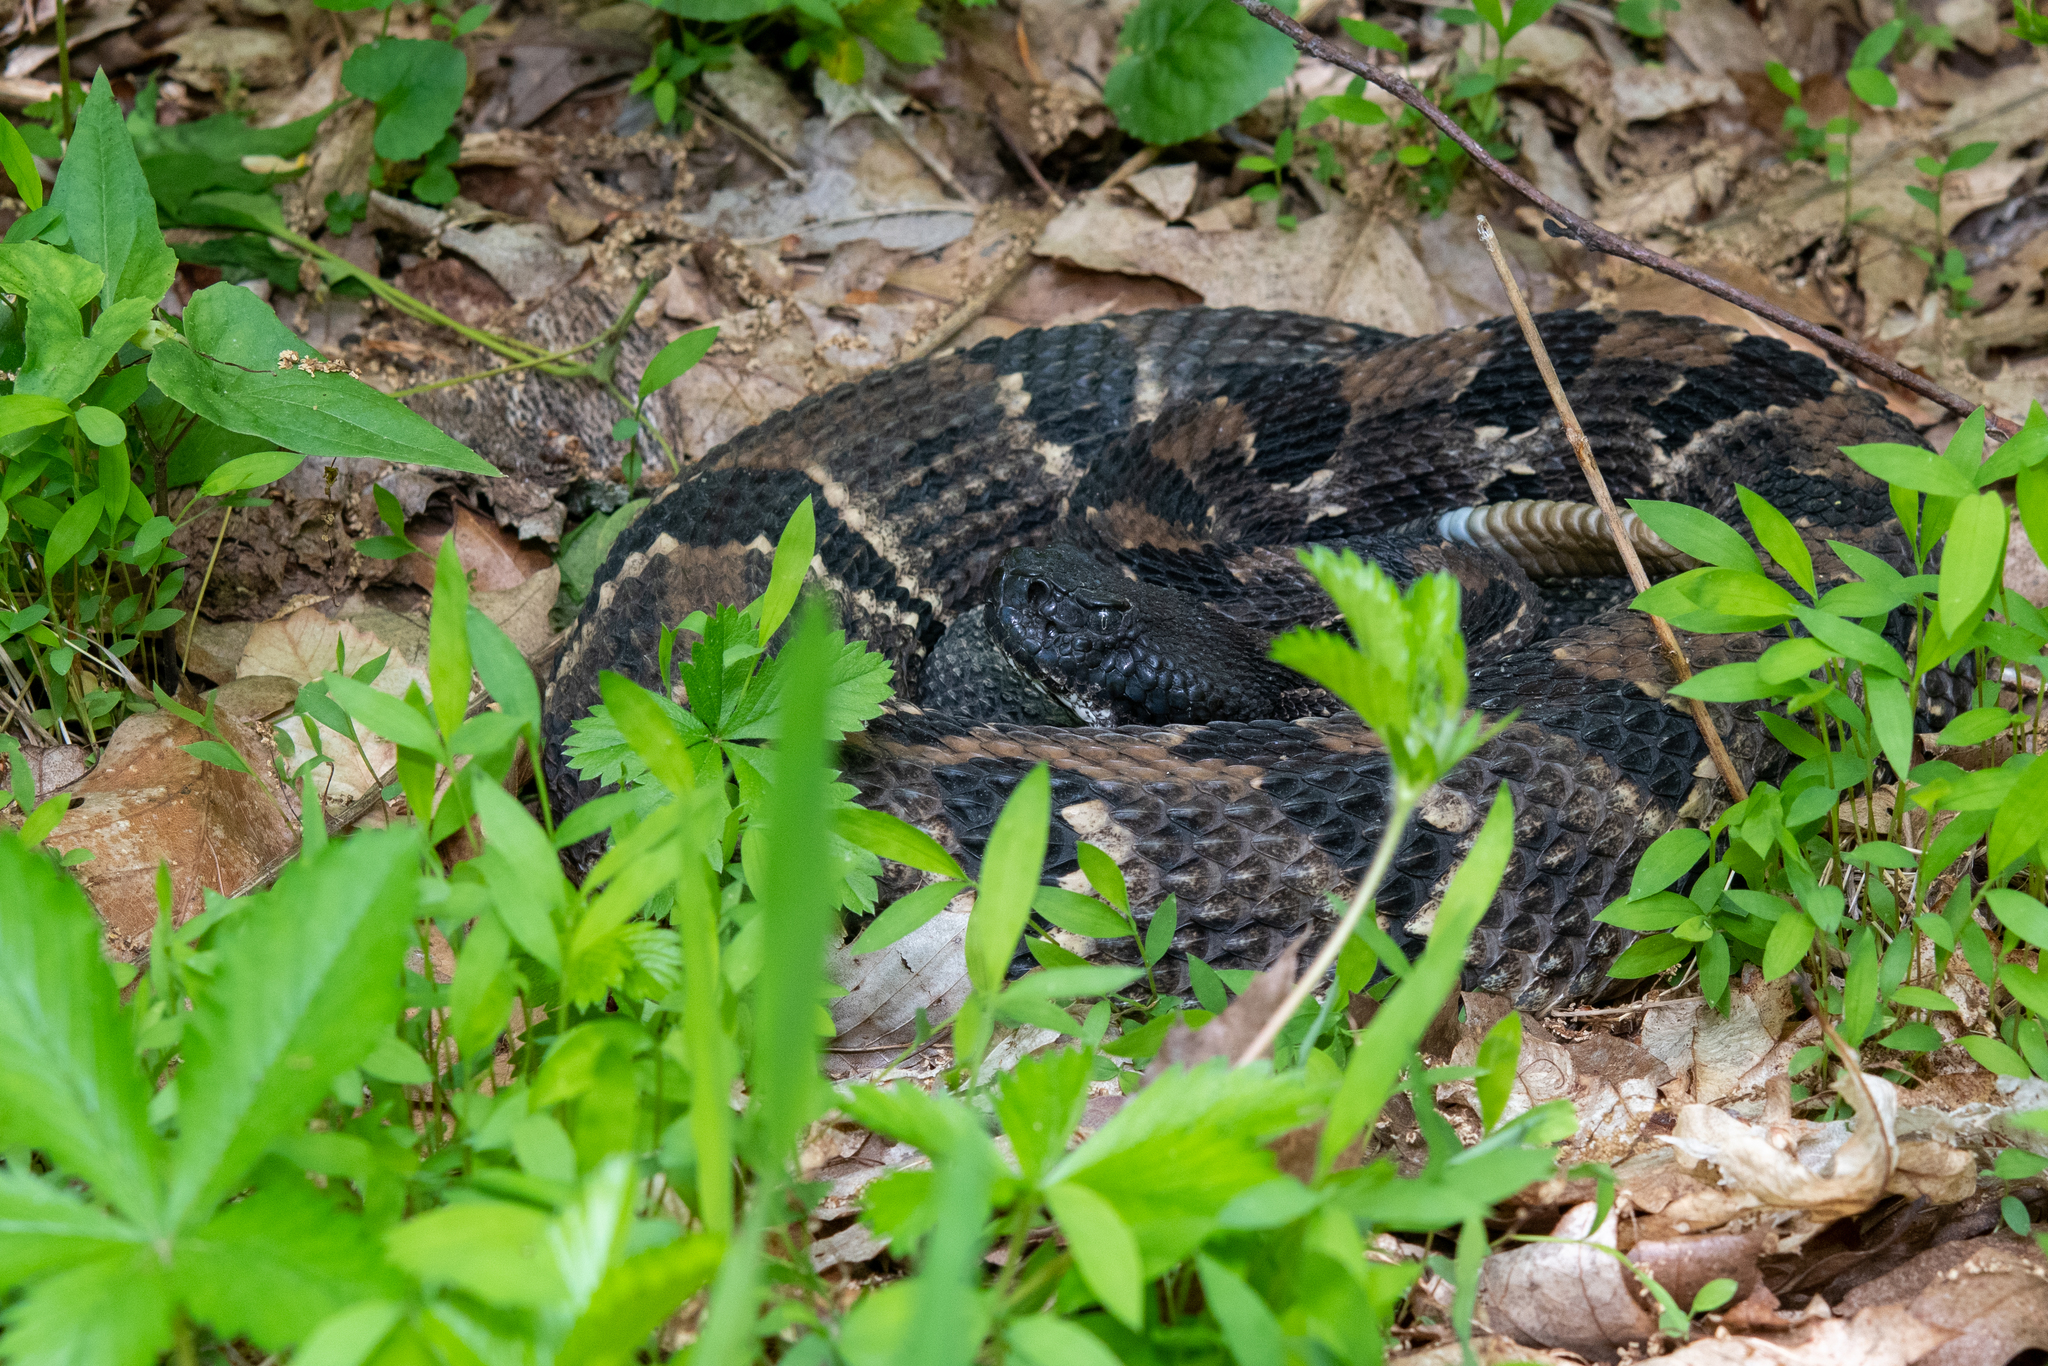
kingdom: Animalia
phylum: Chordata
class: Squamata
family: Viperidae
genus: Crotalus
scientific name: Crotalus horridus
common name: Timber rattlesnake
